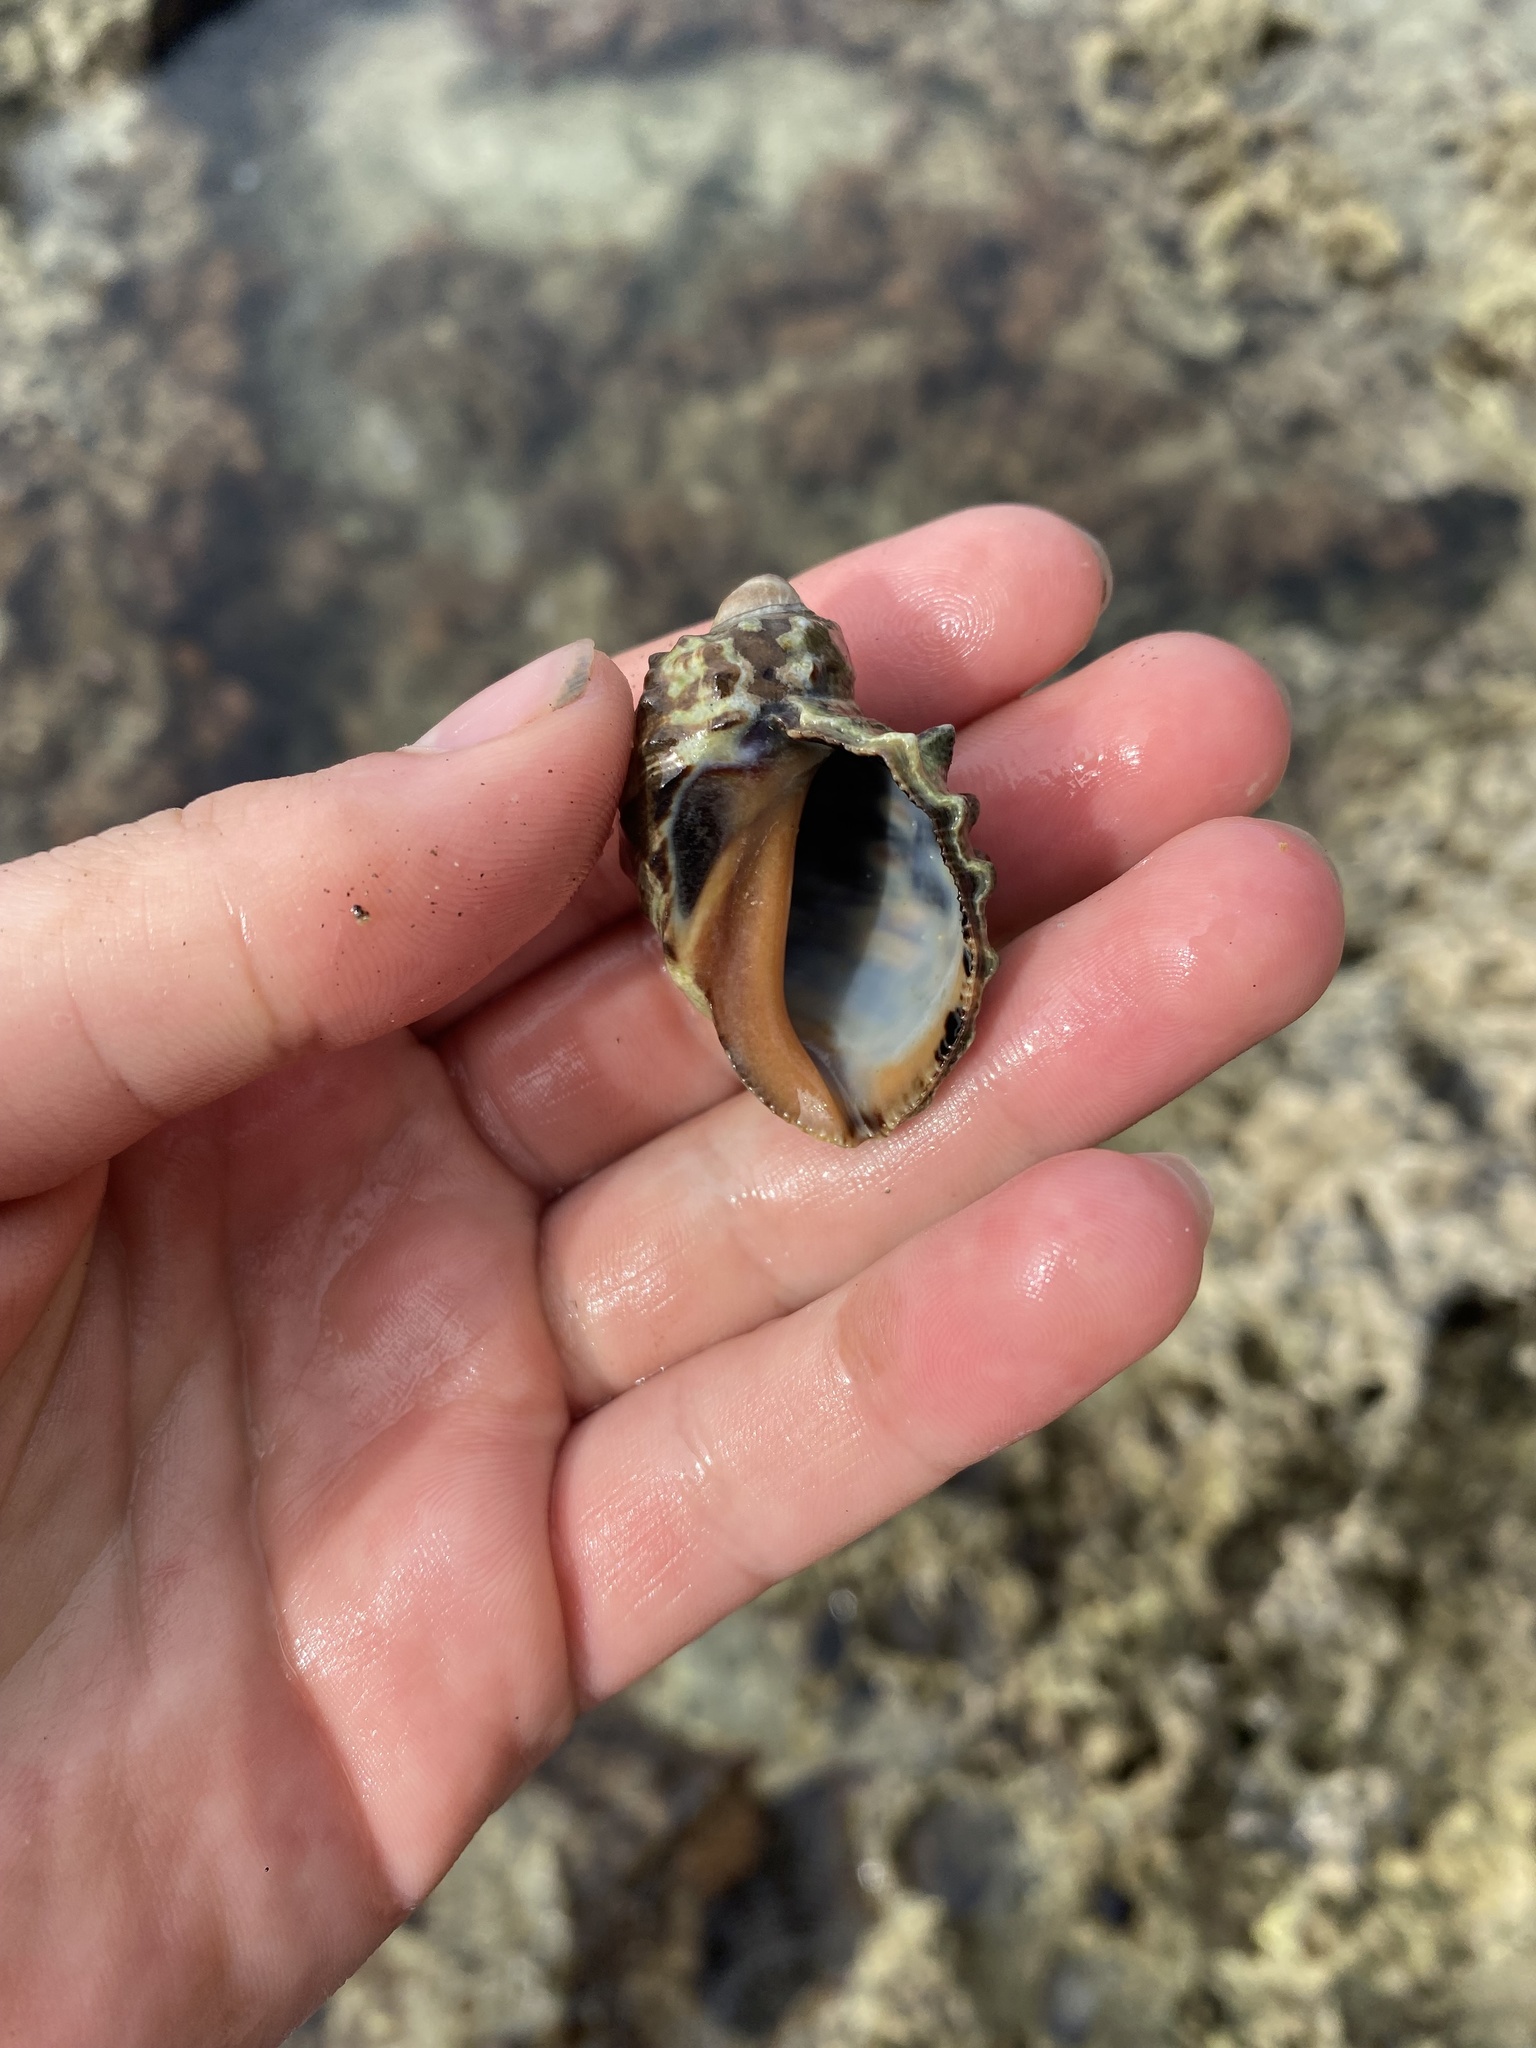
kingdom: Animalia
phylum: Mollusca
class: Gastropoda
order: Neogastropoda
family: Muricidae
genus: Plicopurpura
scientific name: Plicopurpura patula
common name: Wide-mouthed dye shell
